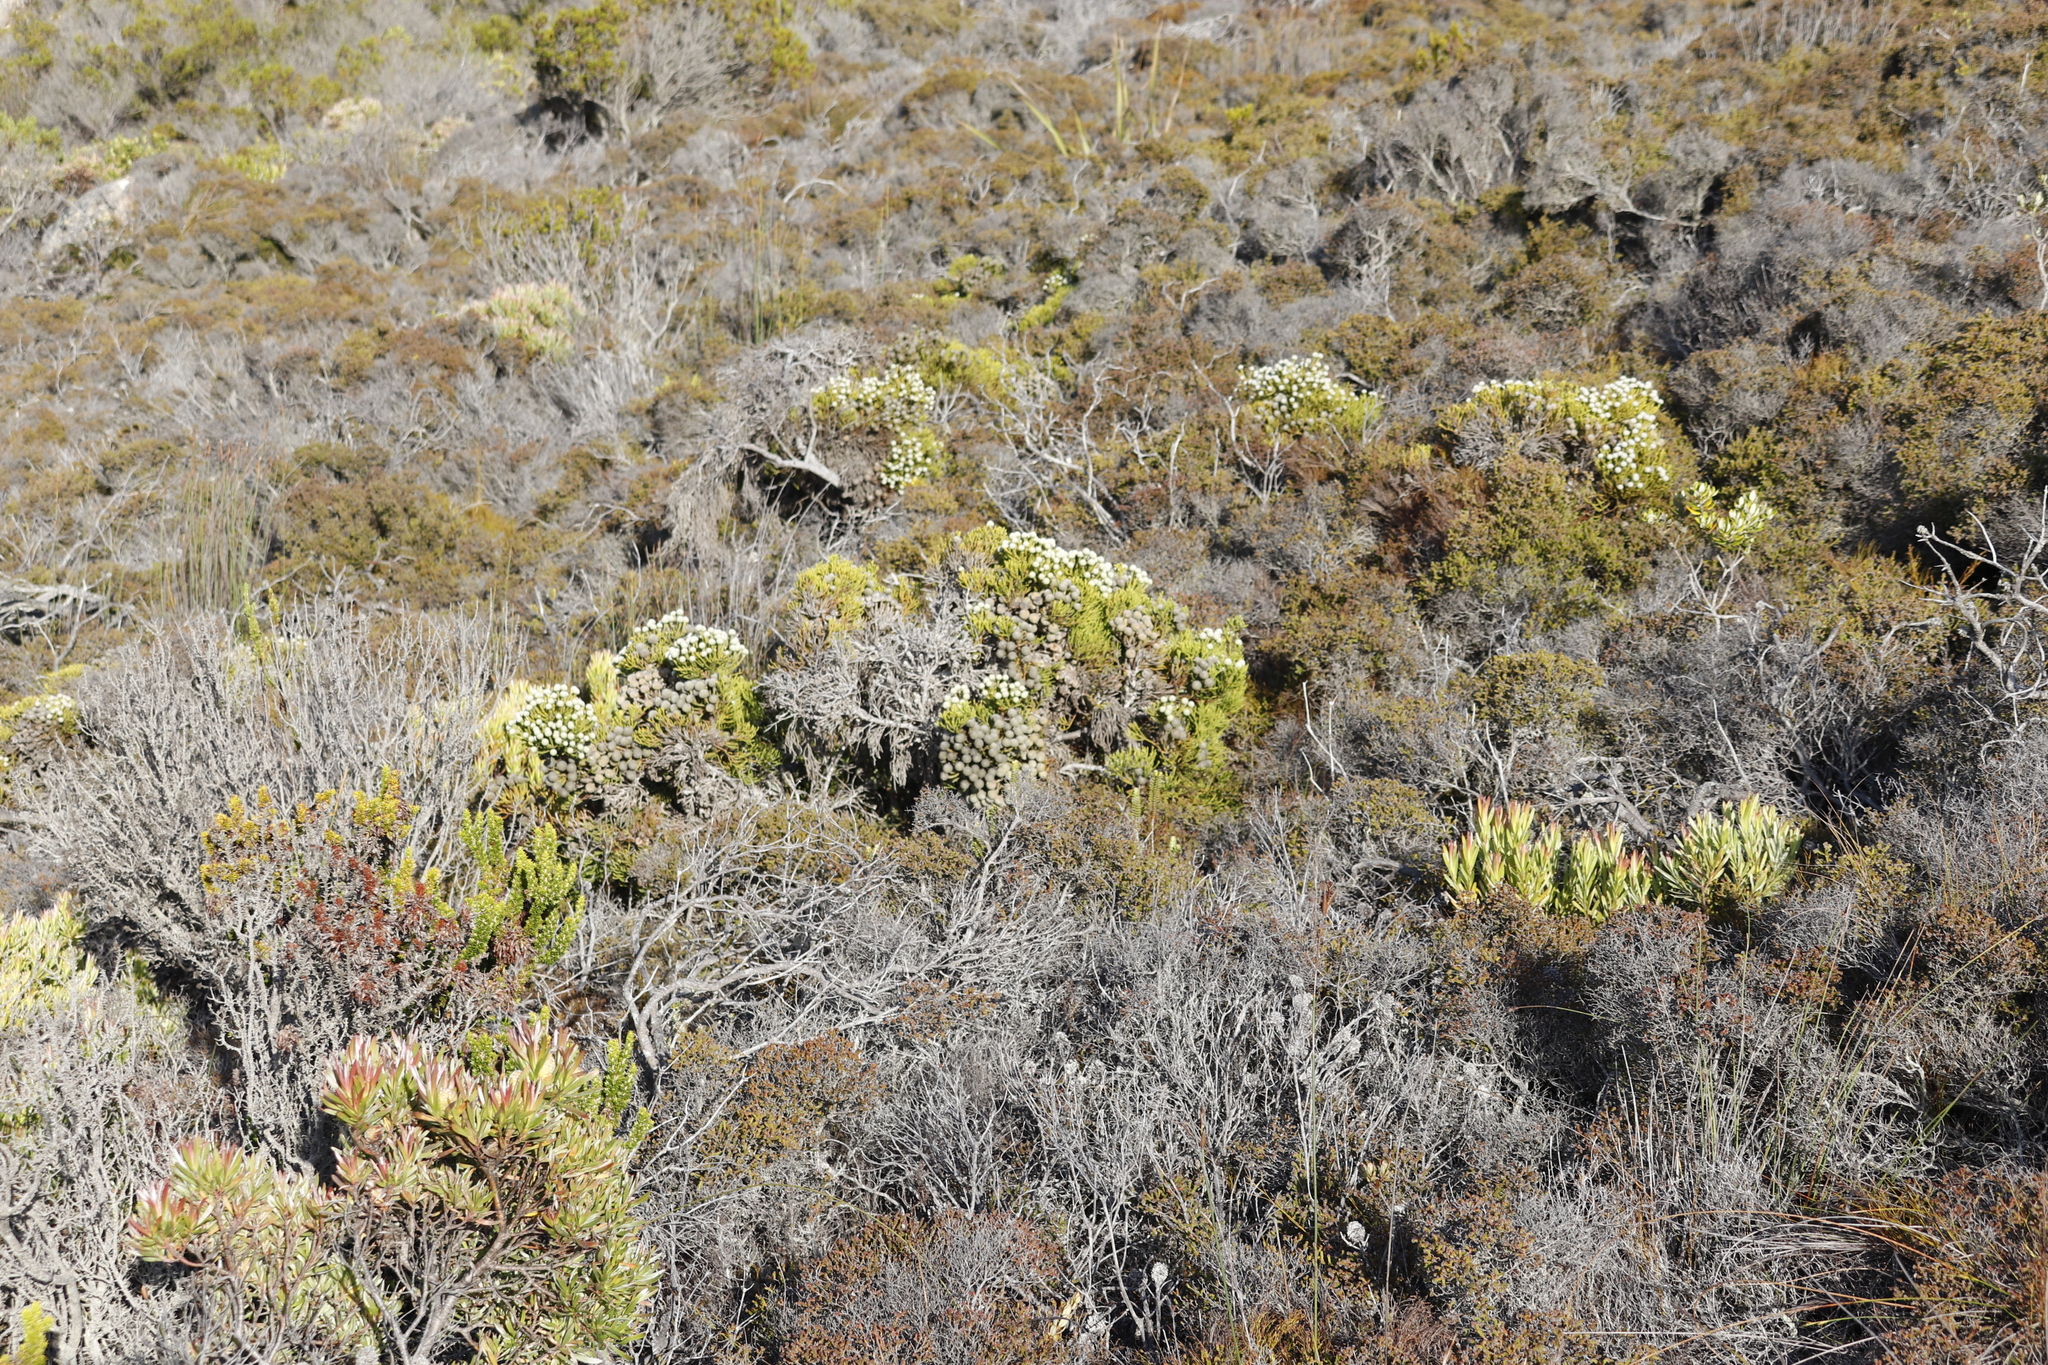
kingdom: Plantae
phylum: Tracheophyta
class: Magnoliopsida
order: Bruniales
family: Bruniaceae
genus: Brunia
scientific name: Brunia noduliflora
